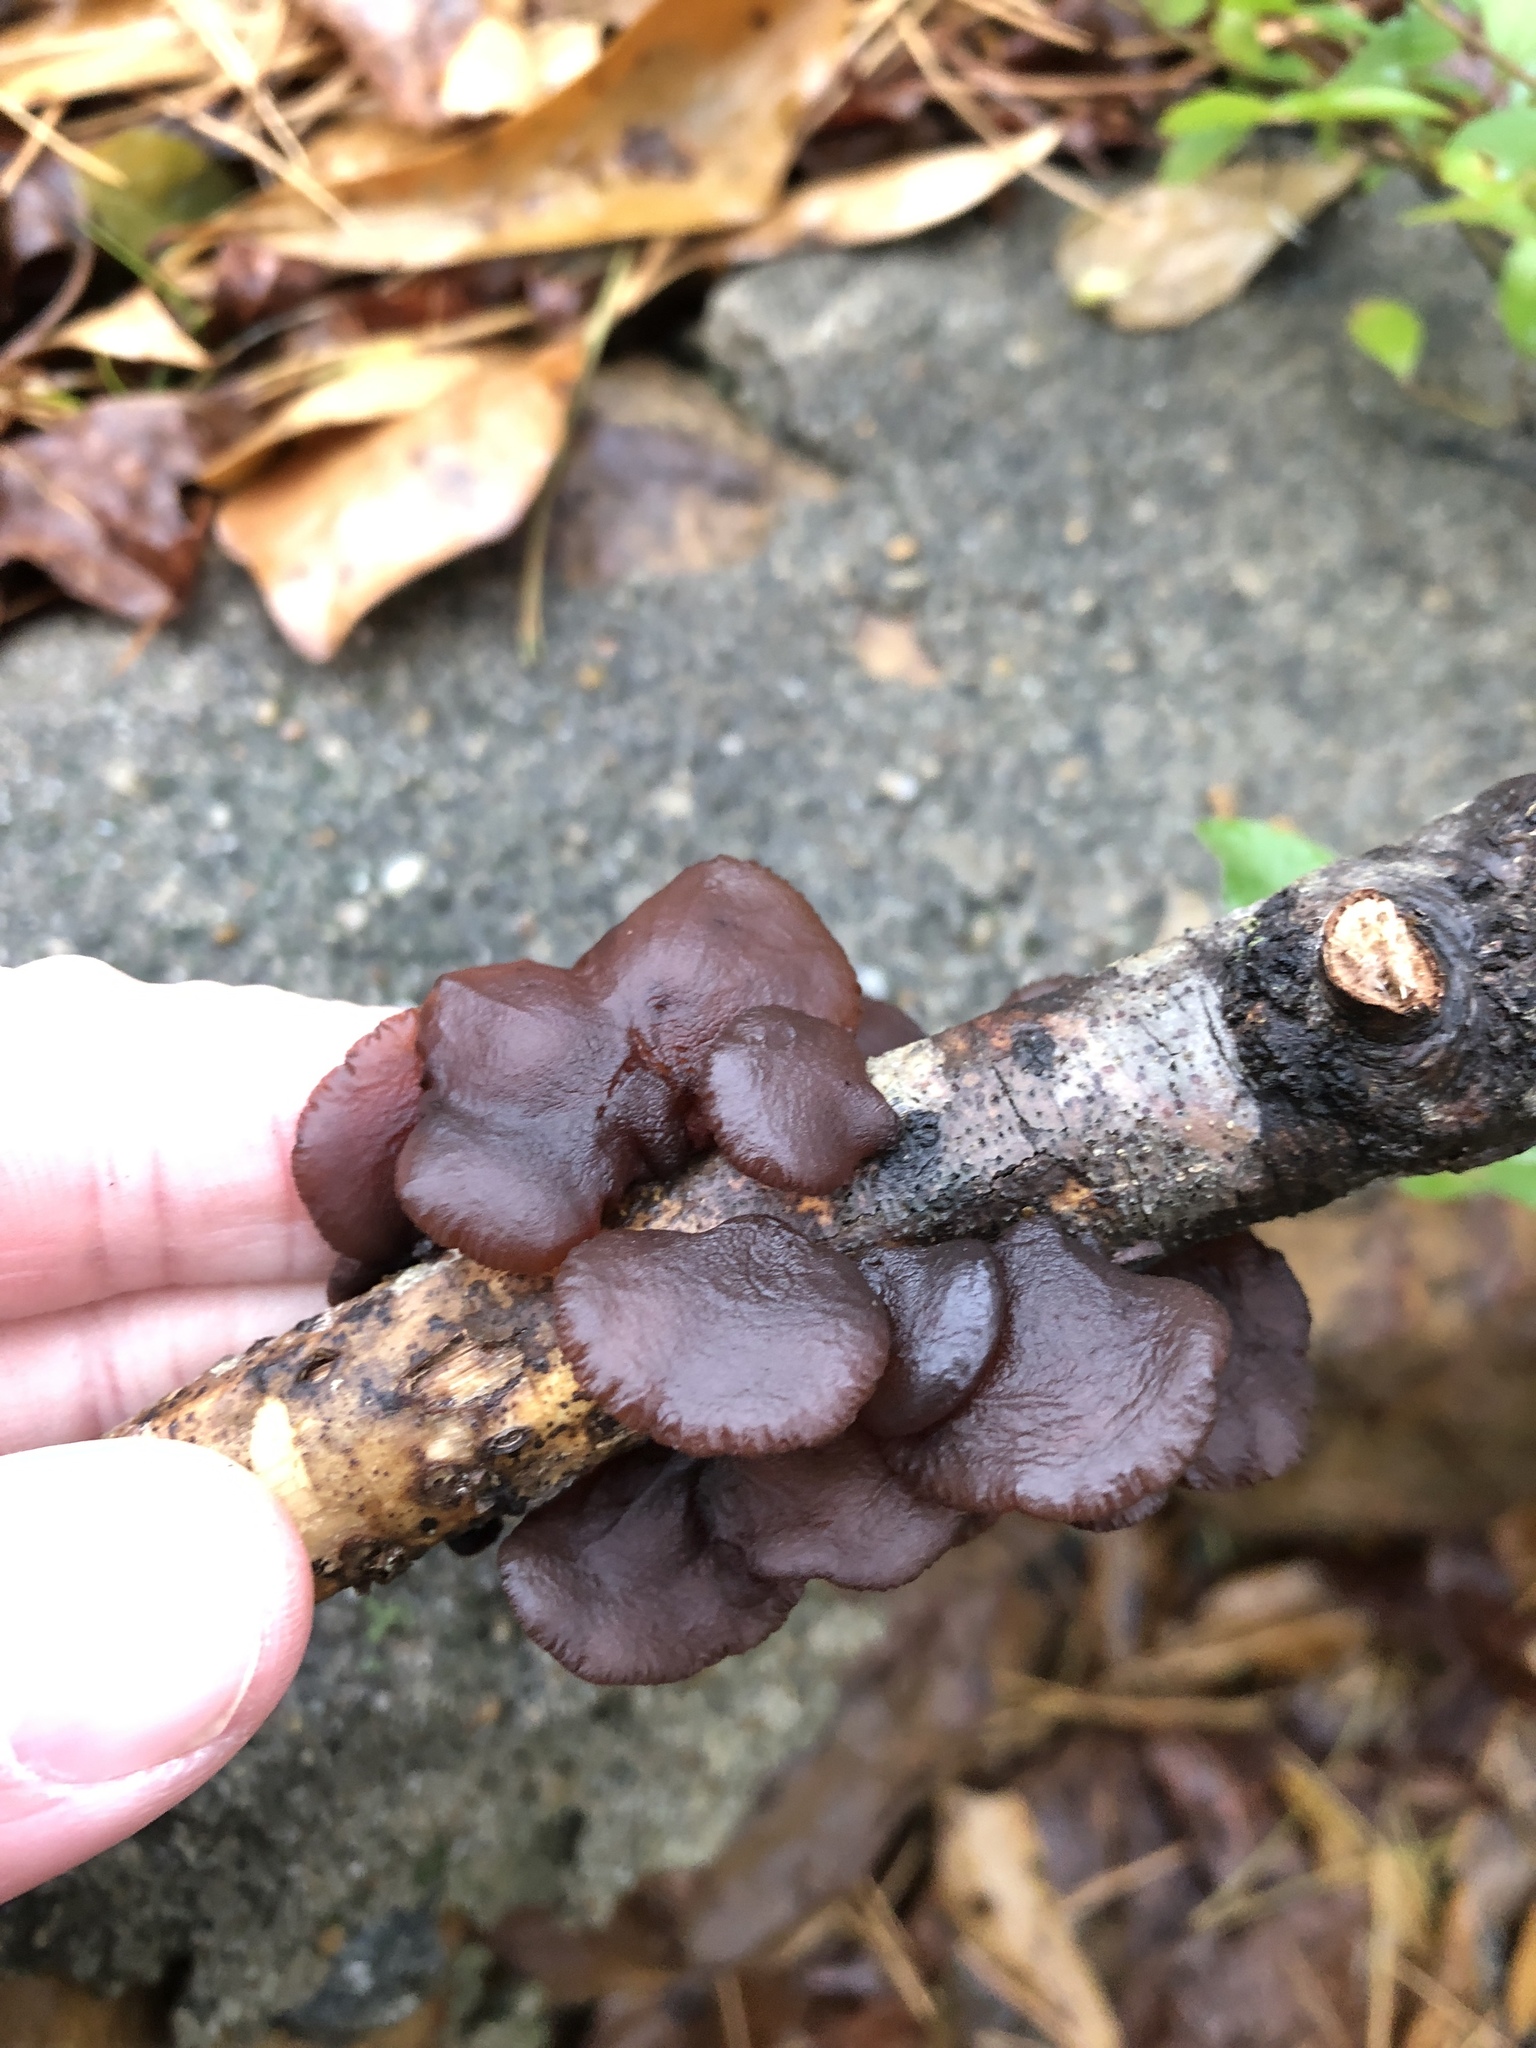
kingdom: Fungi
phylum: Basidiomycota
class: Agaricomycetes
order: Auriculariales
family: Auriculariaceae
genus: Exidia
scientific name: Exidia
